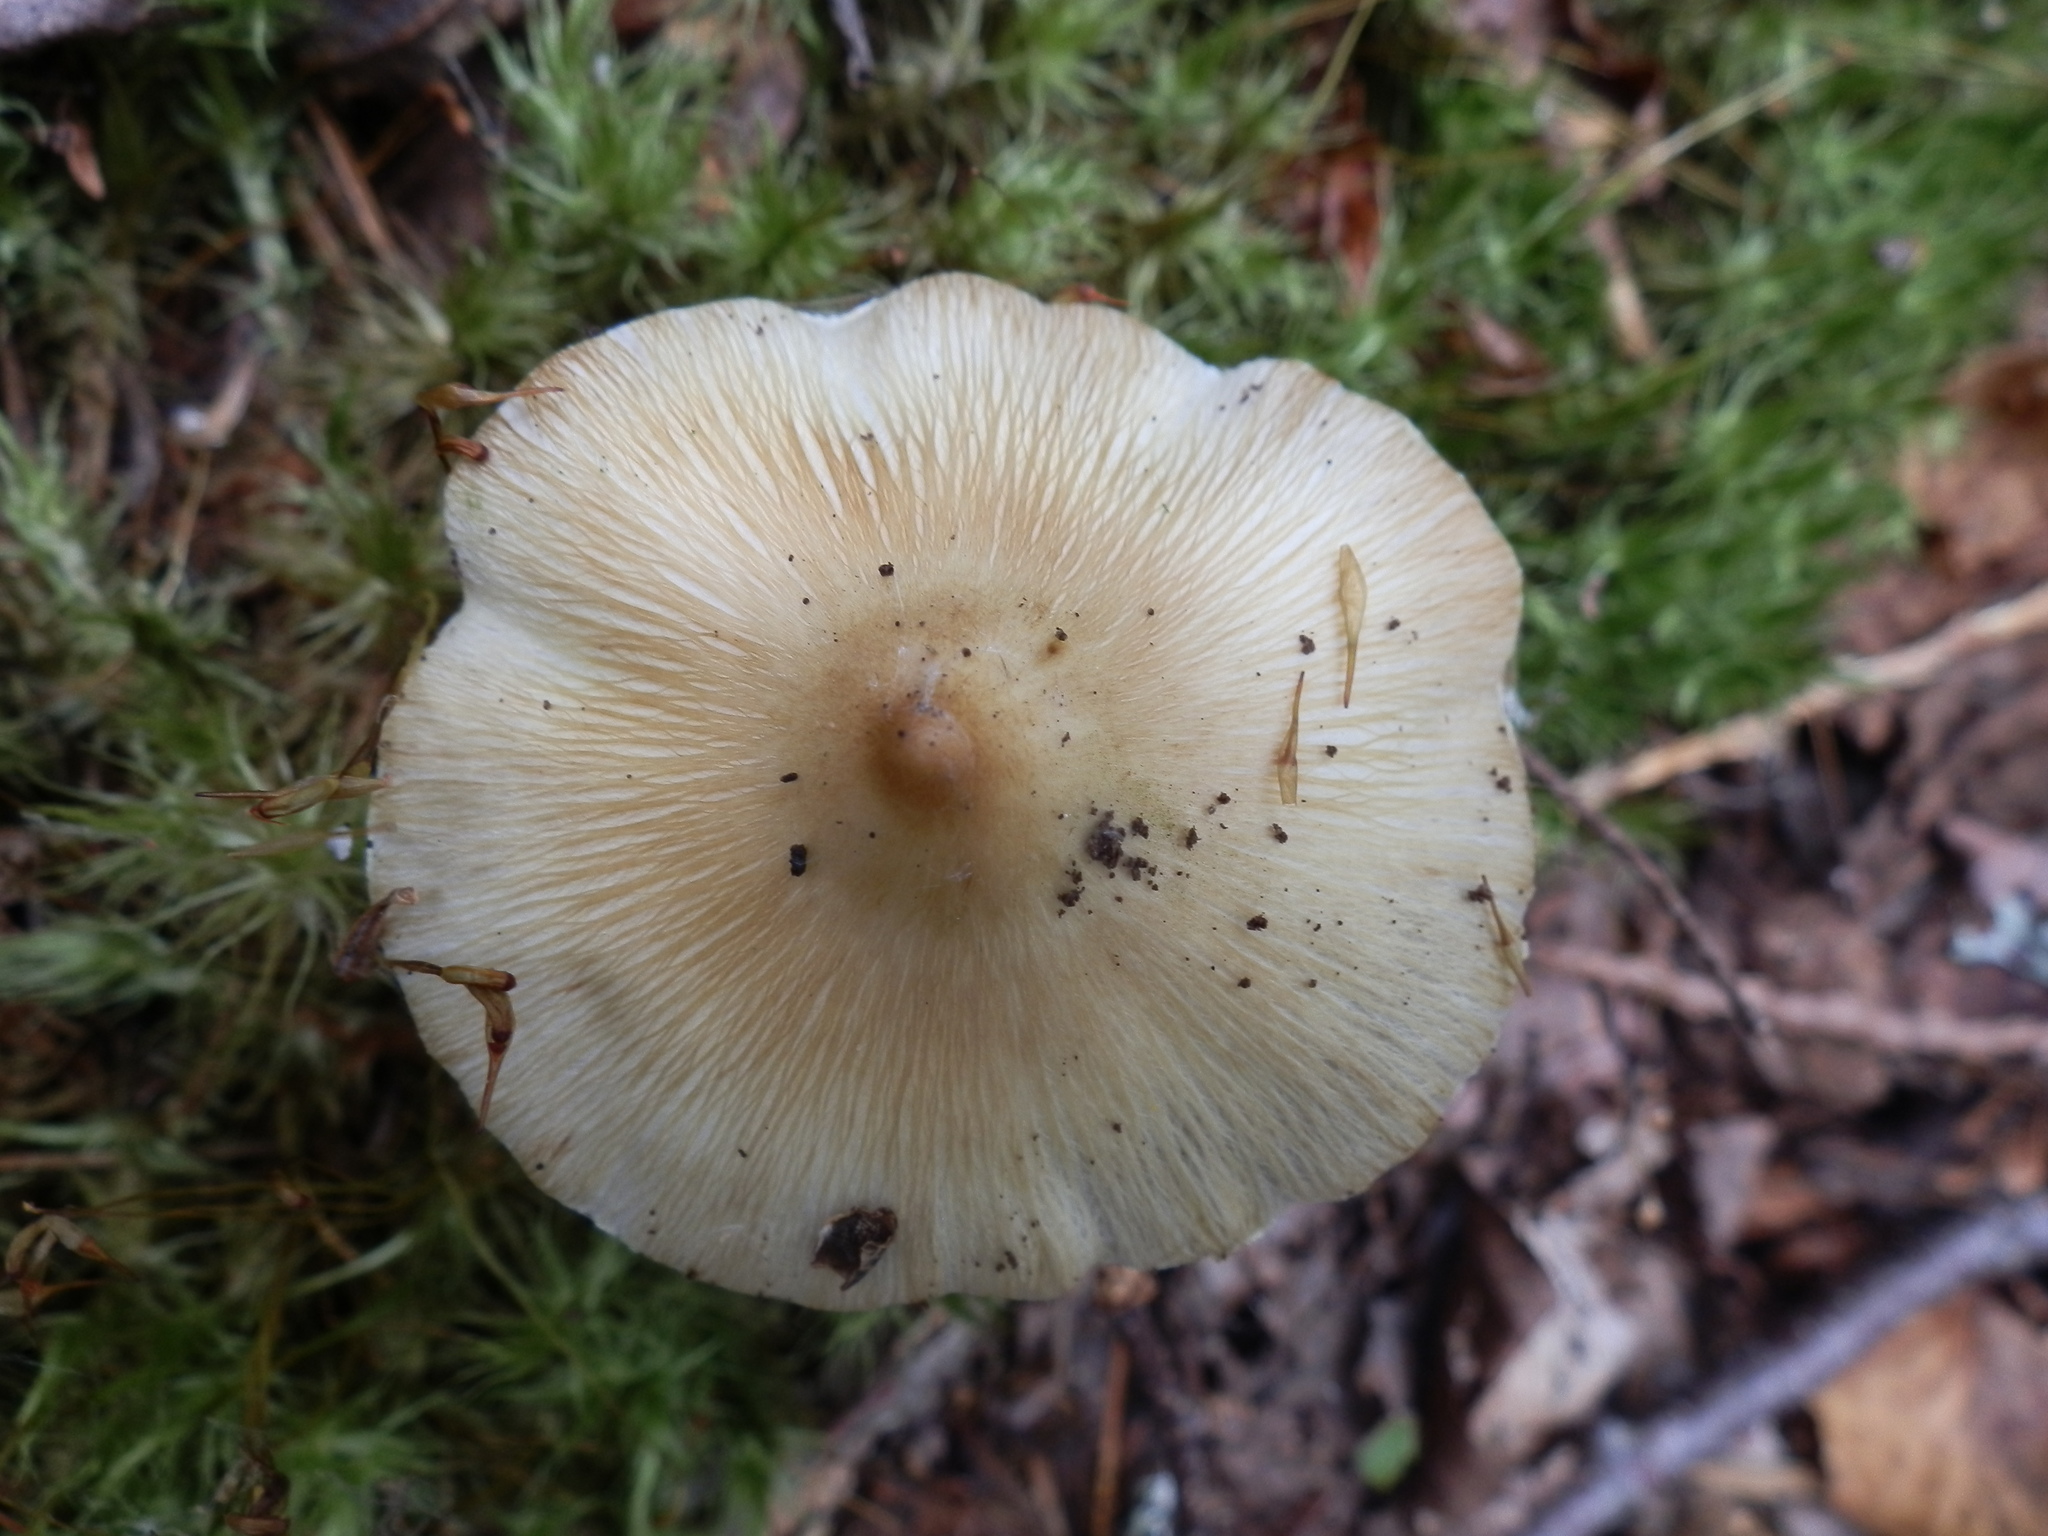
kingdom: Fungi
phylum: Basidiomycota
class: Agaricomycetes
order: Agaricales
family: Inocybaceae
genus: Pseudosperma
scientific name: Pseudosperma rimosum
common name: Split fibrecap
